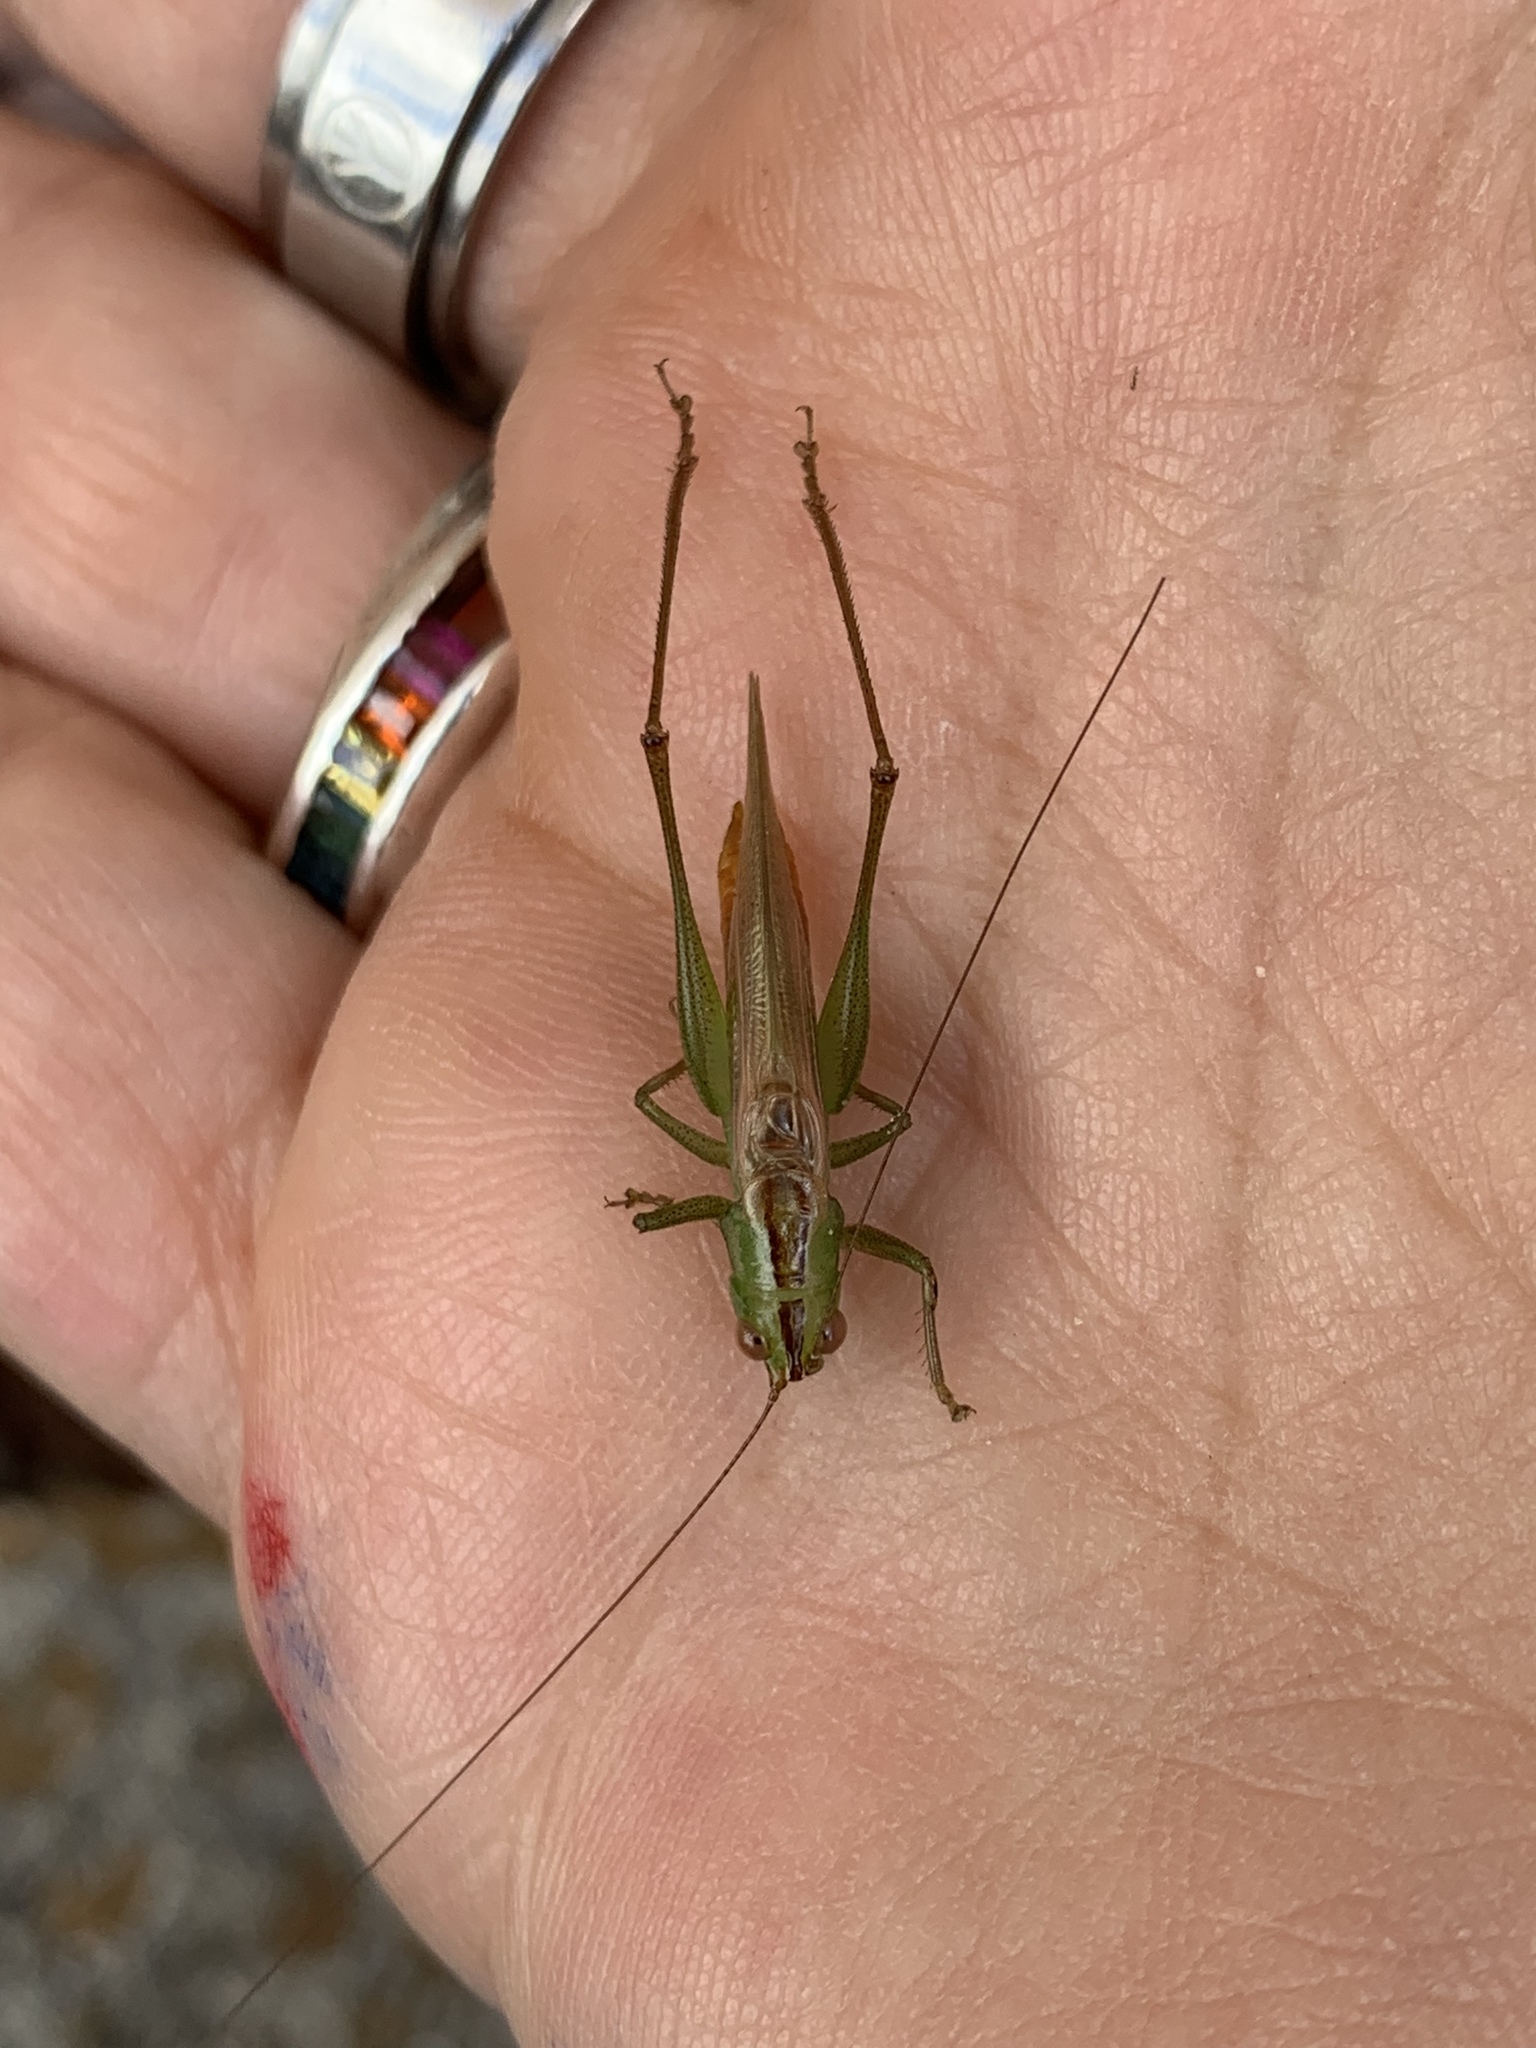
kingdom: Animalia
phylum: Arthropoda
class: Insecta
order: Orthoptera
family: Tettigoniidae
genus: Conocephalus
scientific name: Conocephalus cinereus
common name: Caribbean meadow katydid
